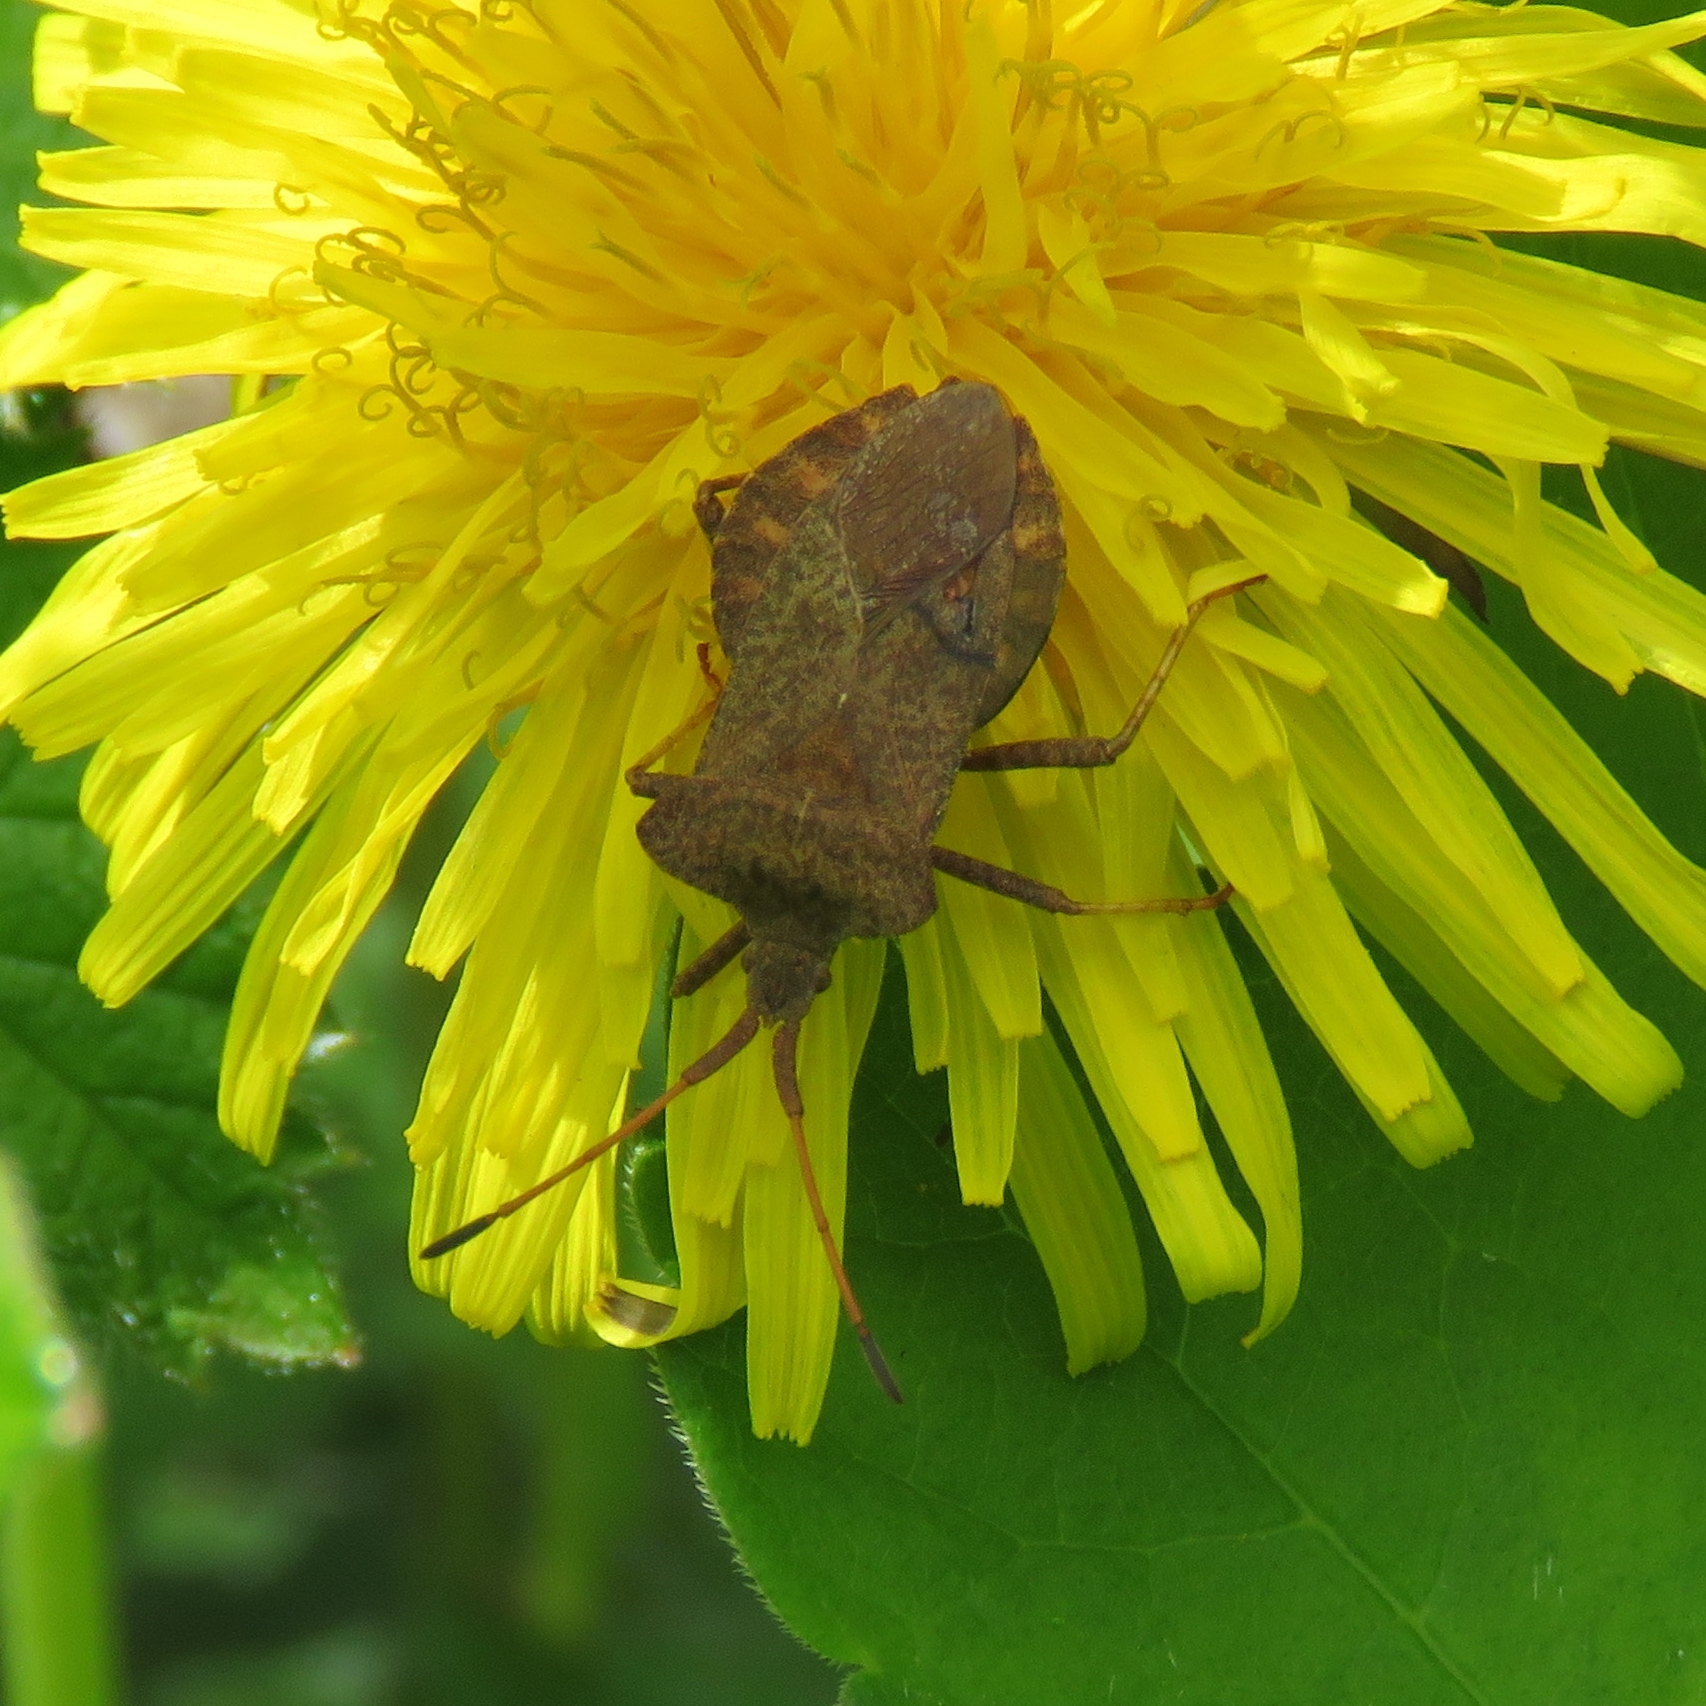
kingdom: Animalia
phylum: Arthropoda
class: Insecta
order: Hemiptera
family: Coreidae
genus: Coreus
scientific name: Coreus marginatus
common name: Dock bug
